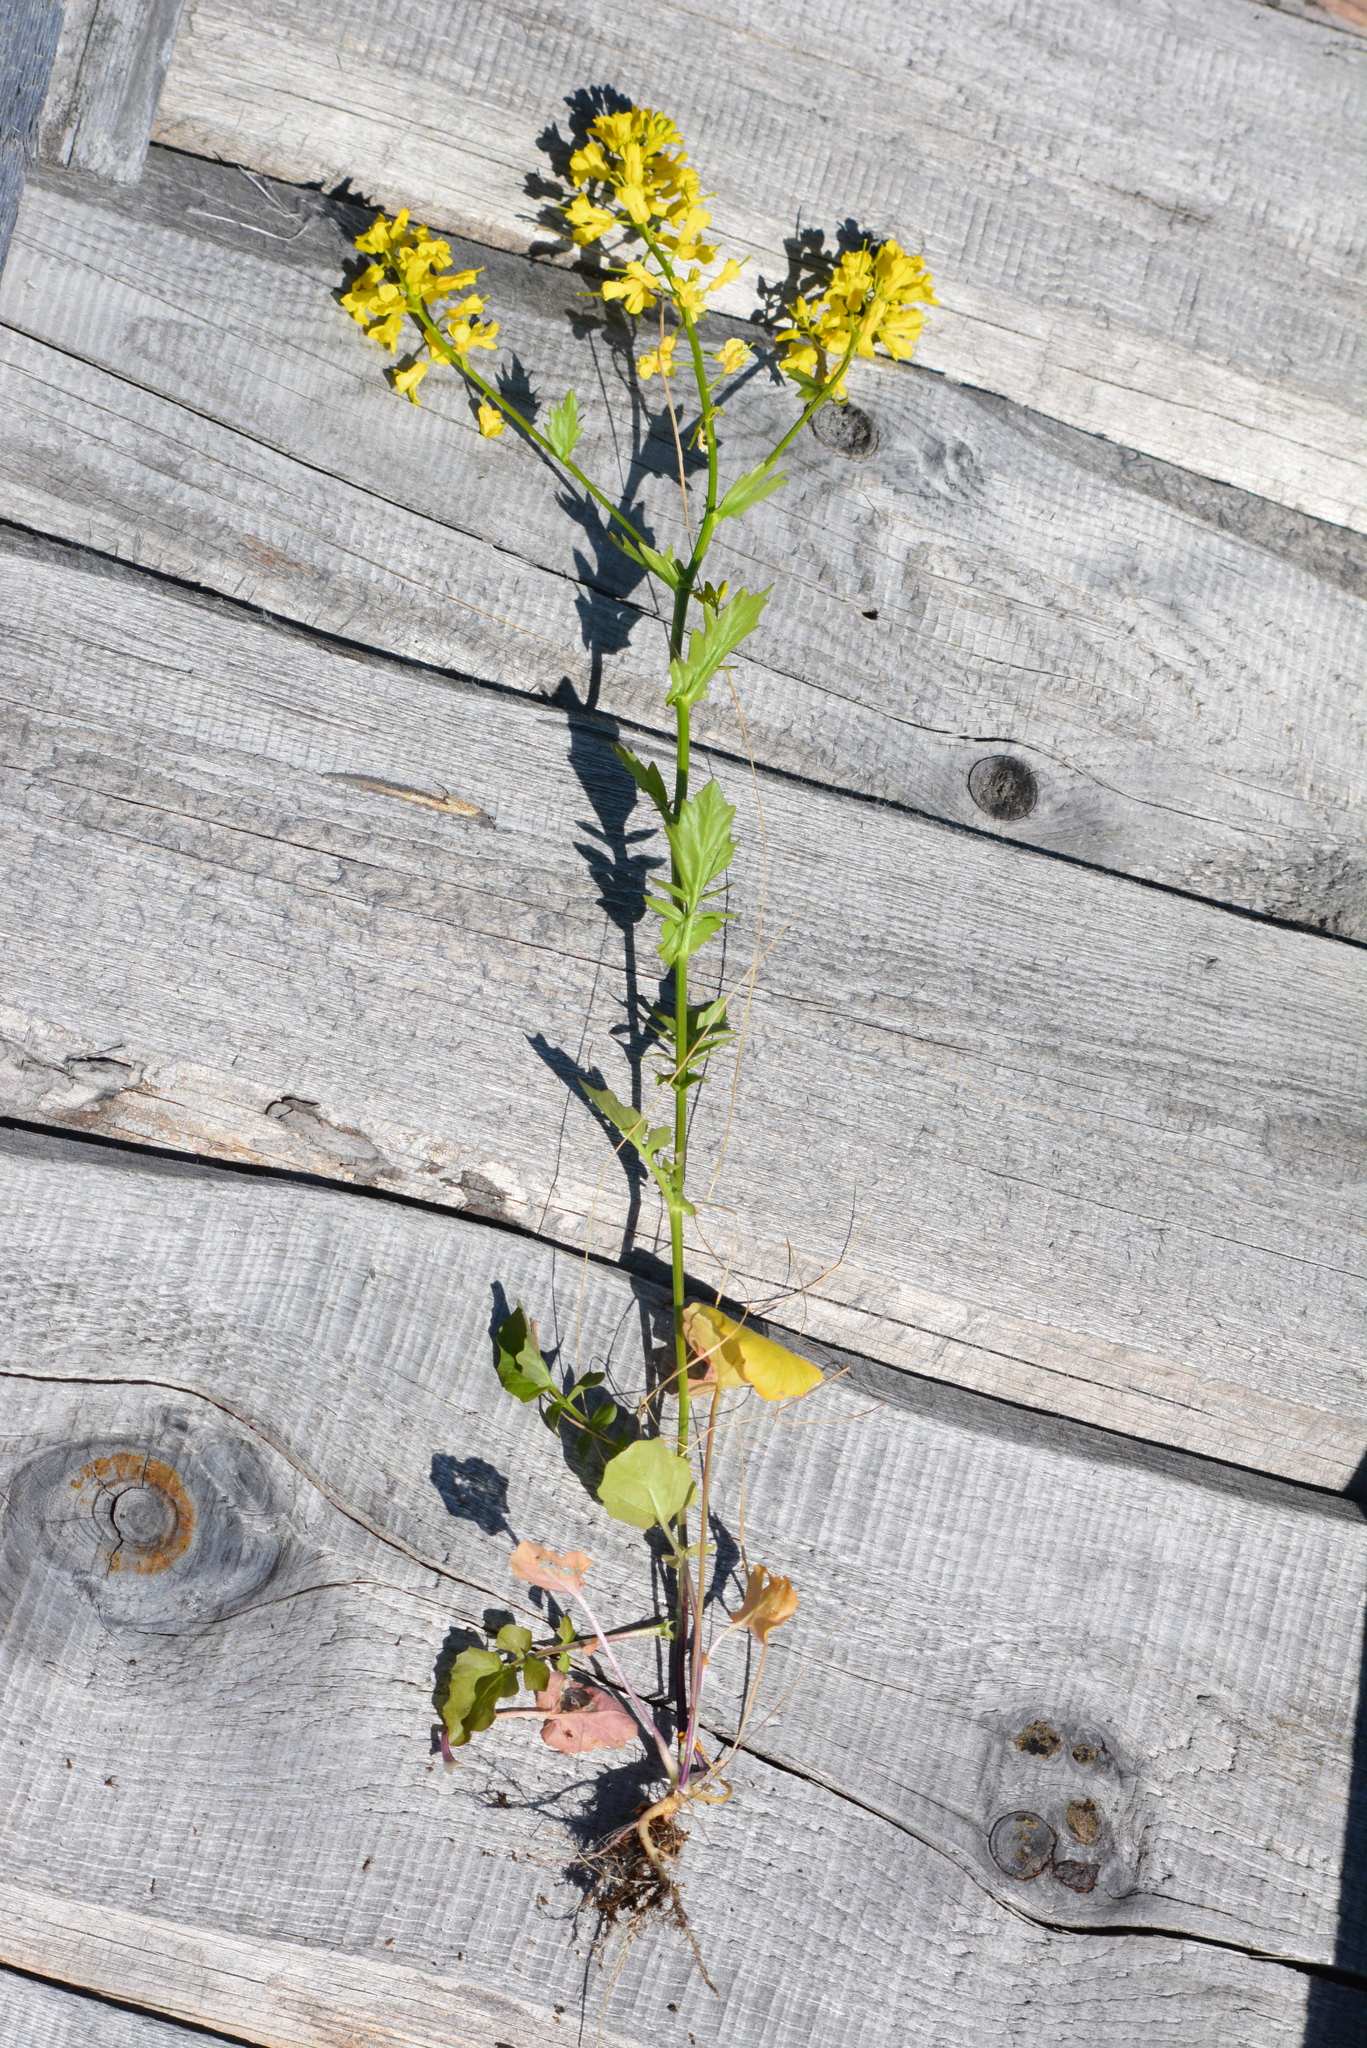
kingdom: Plantae
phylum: Tracheophyta
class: Magnoliopsida
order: Brassicales
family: Brassicaceae
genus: Barbarea
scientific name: Barbarea vulgaris
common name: Cressy-greens
